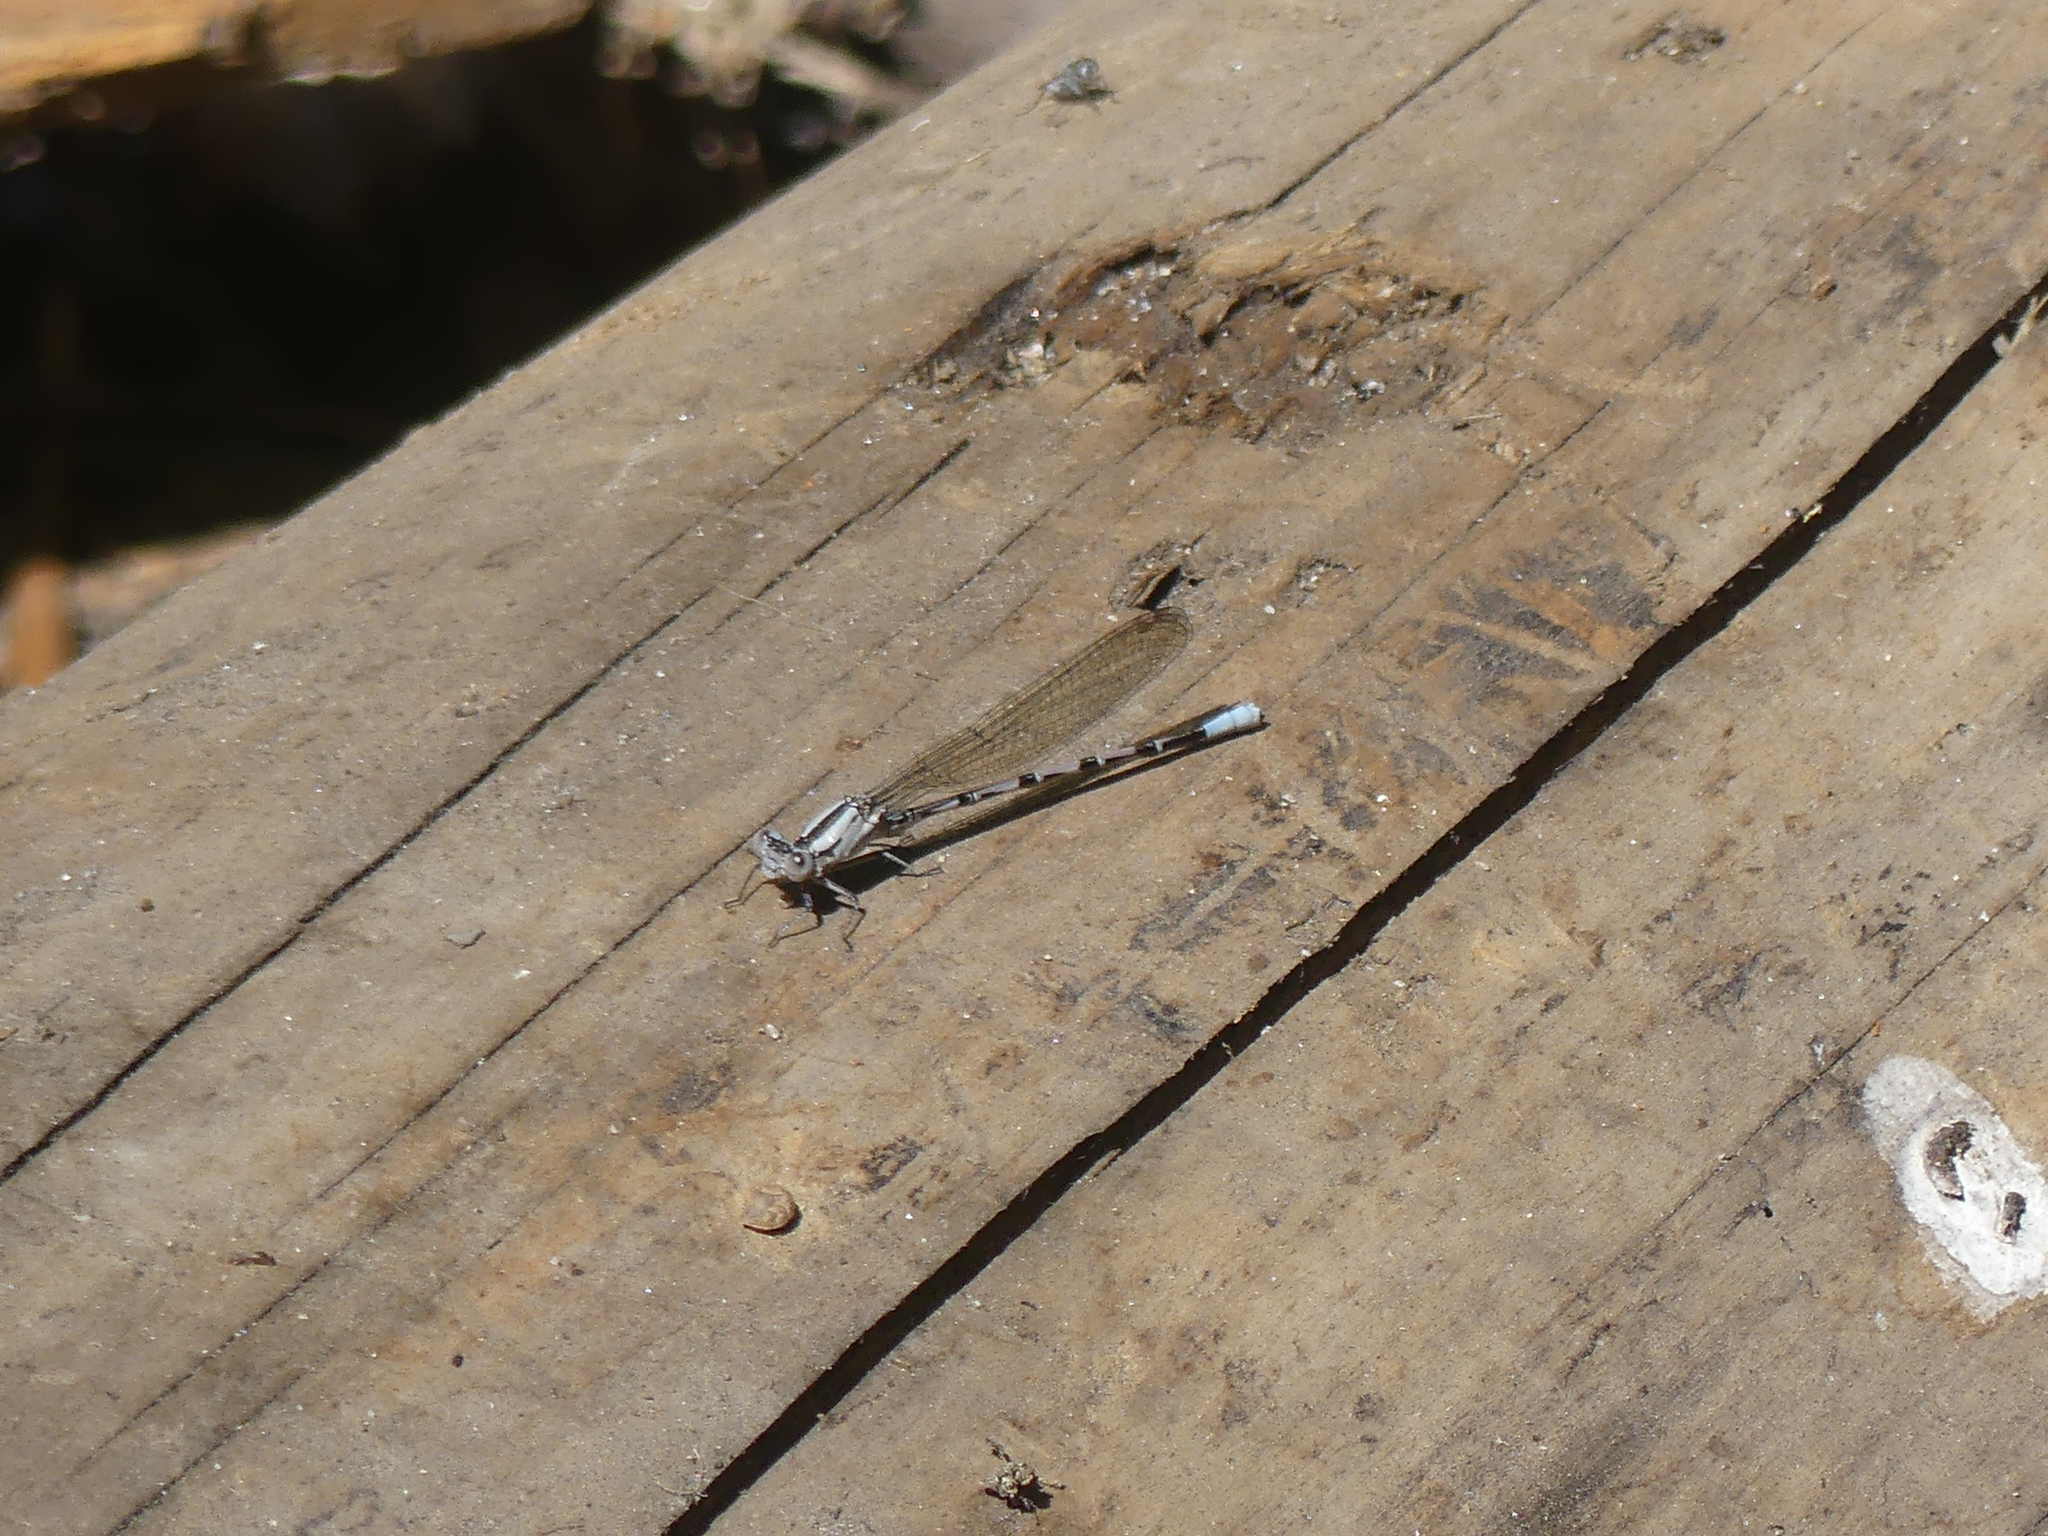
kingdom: Animalia
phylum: Arthropoda
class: Insecta
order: Odonata
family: Coenagrionidae
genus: Argia
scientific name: Argia vivida
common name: Vivid dancer
